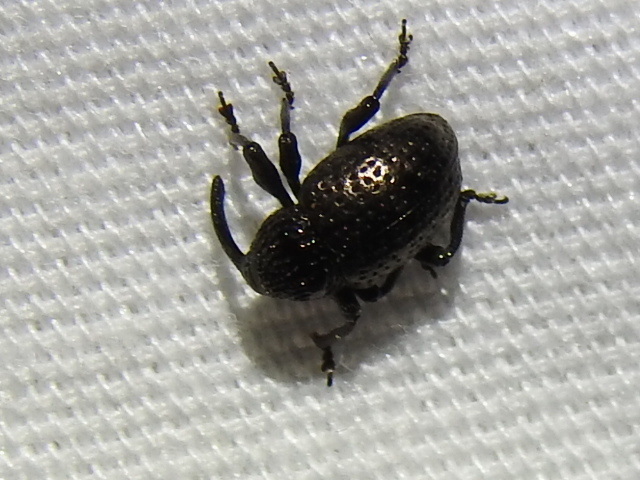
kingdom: Animalia
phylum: Arthropoda
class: Insecta
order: Coleoptera
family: Curculionidae
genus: Chalcodermus
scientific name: Chalcodermus inaequicollis
